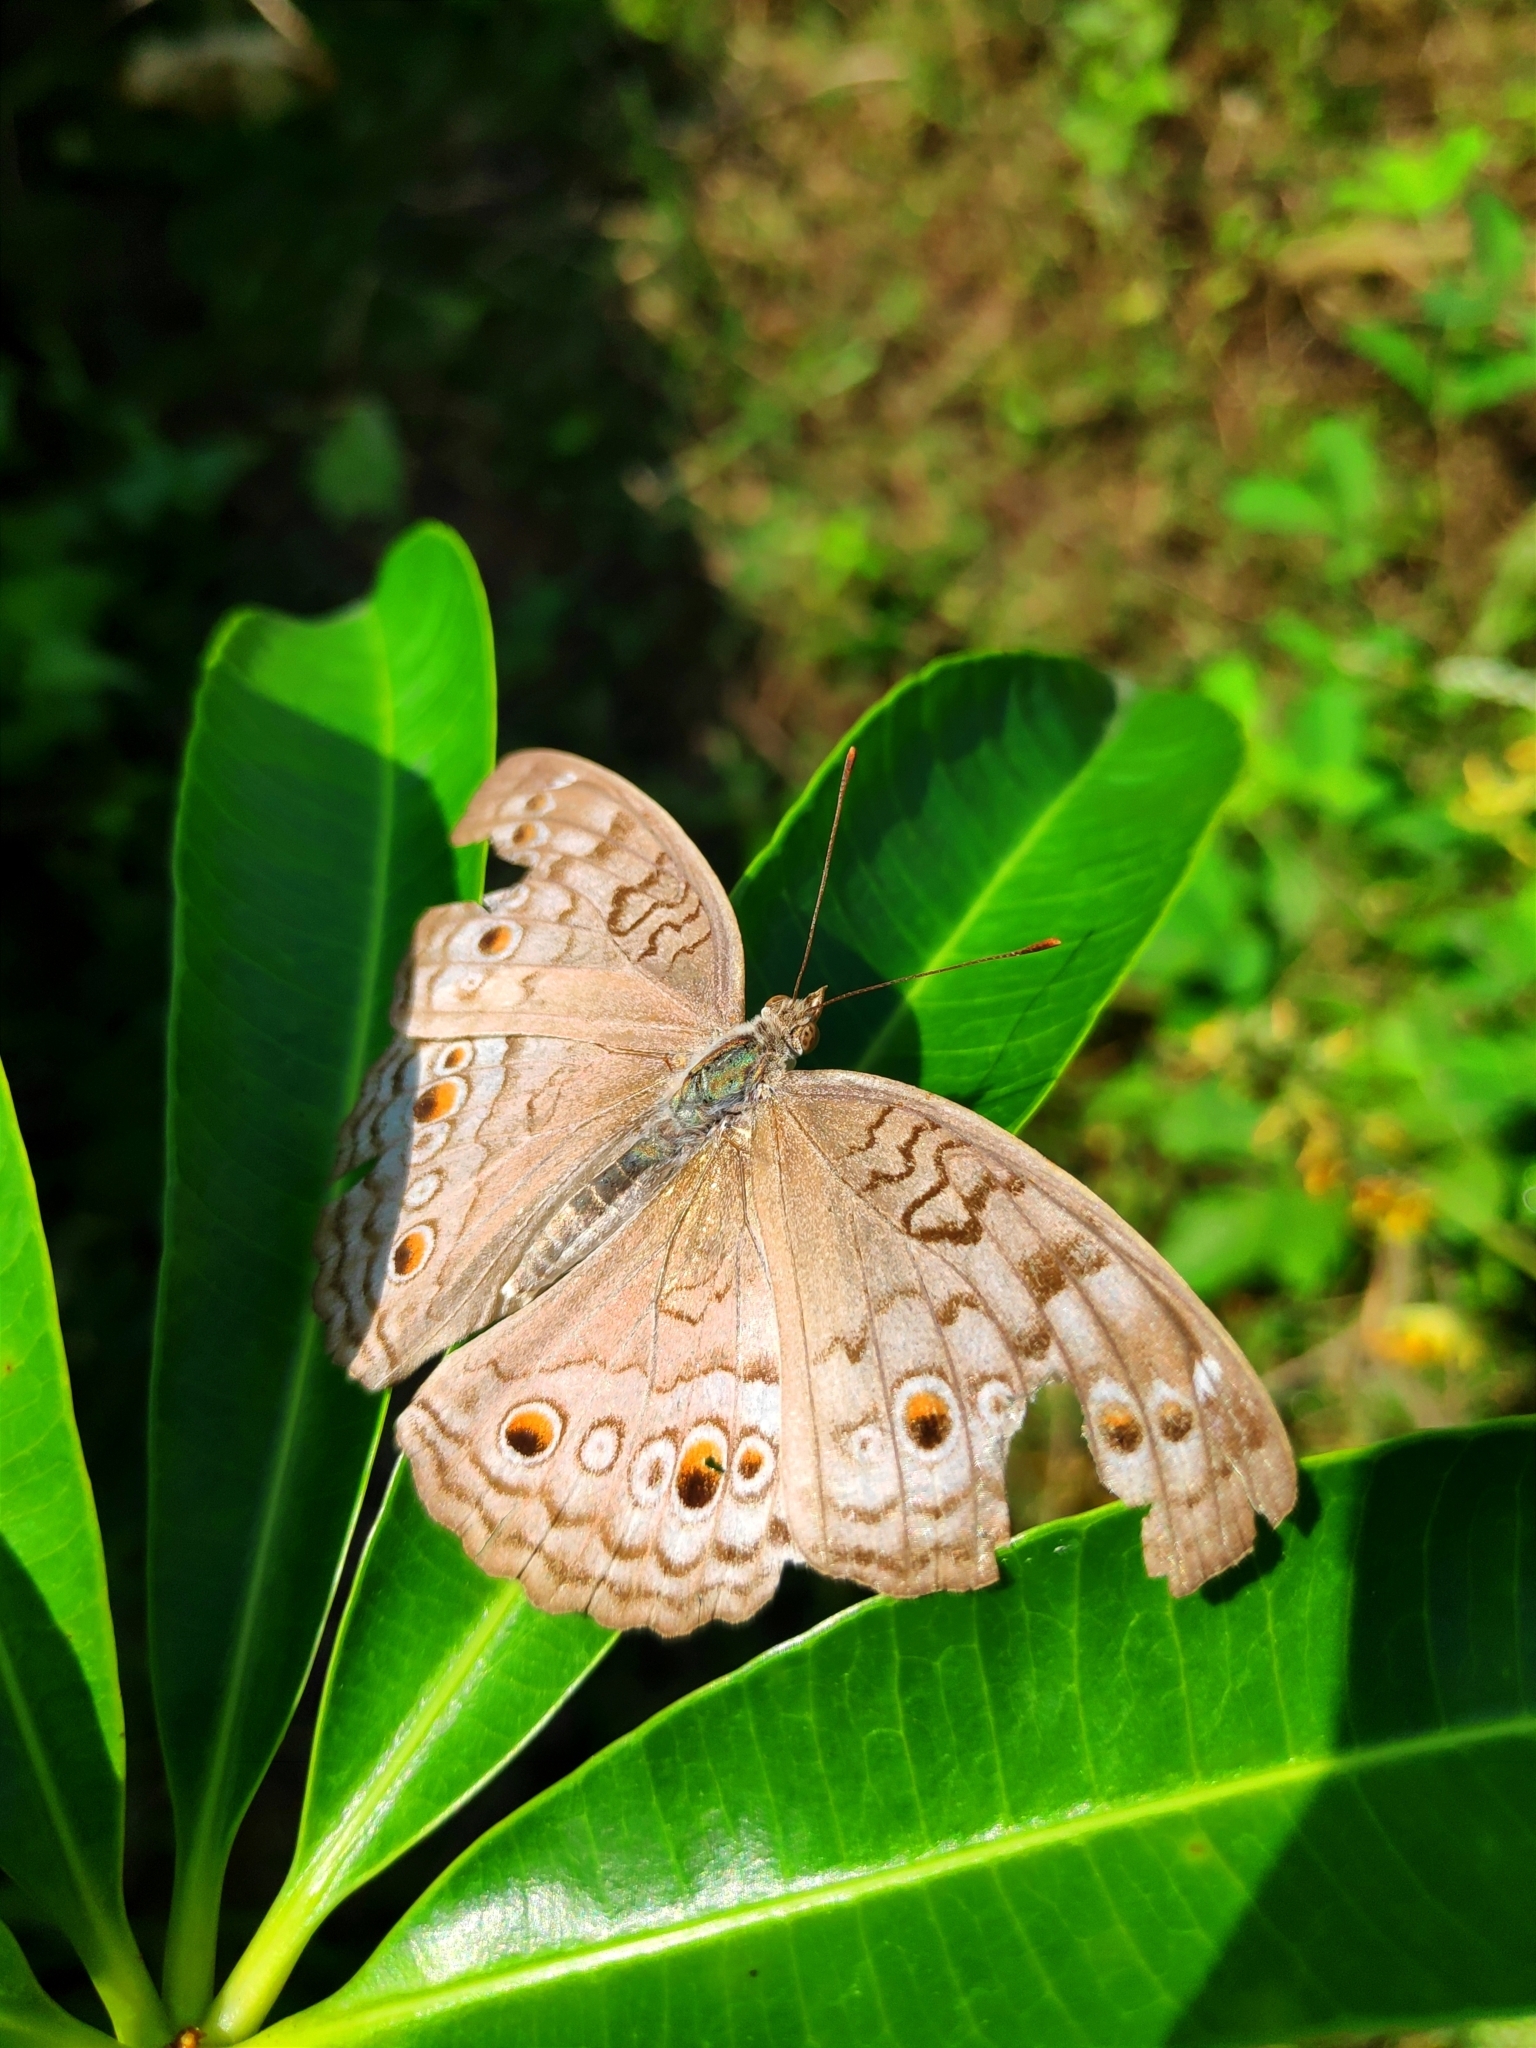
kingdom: Animalia
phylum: Arthropoda
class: Insecta
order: Lepidoptera
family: Nymphalidae
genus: Junonia
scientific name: Junonia atlites
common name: Grey pansy
